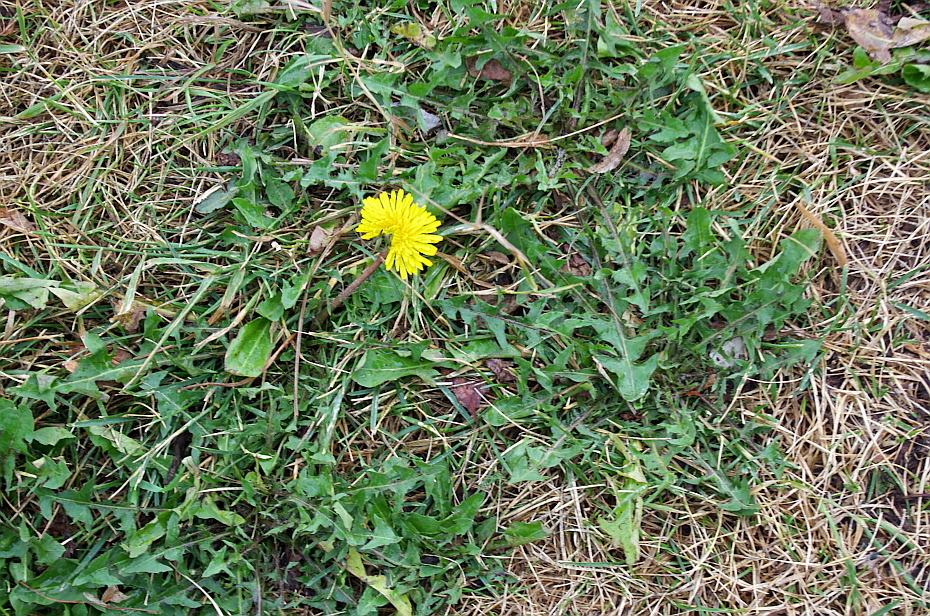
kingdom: Plantae
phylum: Tracheophyta
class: Magnoliopsida
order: Asterales
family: Asteraceae
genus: Taraxacum
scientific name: Taraxacum officinale
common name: Common dandelion
